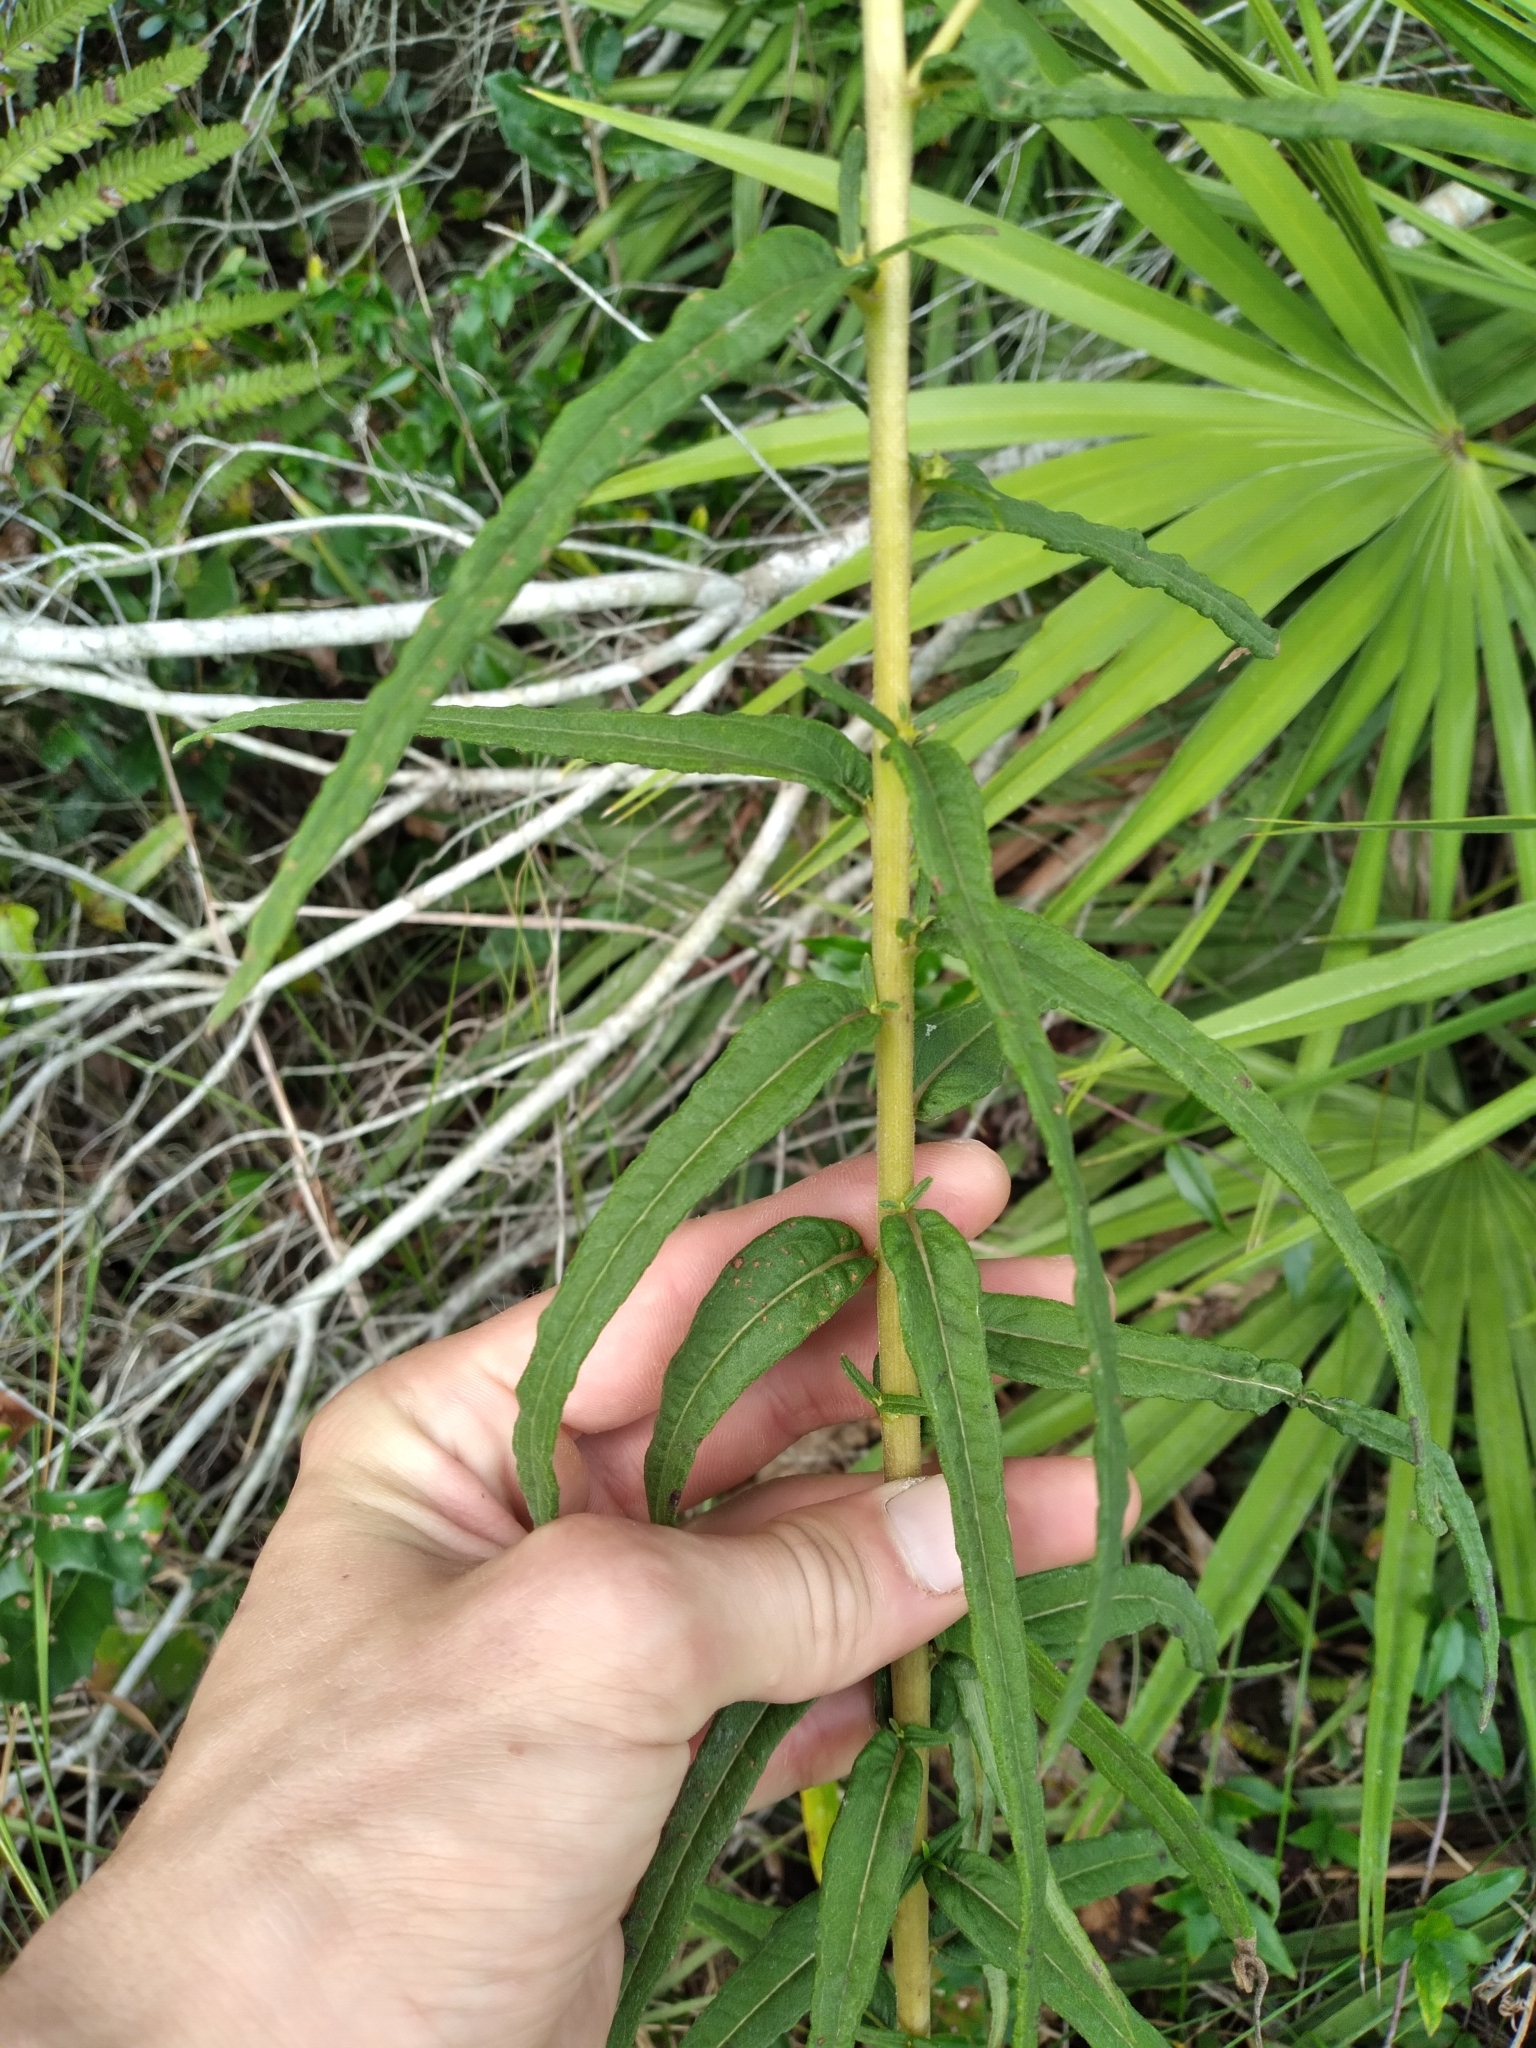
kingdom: Plantae
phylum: Tracheophyta
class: Magnoliopsida
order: Asterales
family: Asteraceae
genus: Helianthus
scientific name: Helianthus angustifolius
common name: Swamp sunflower
